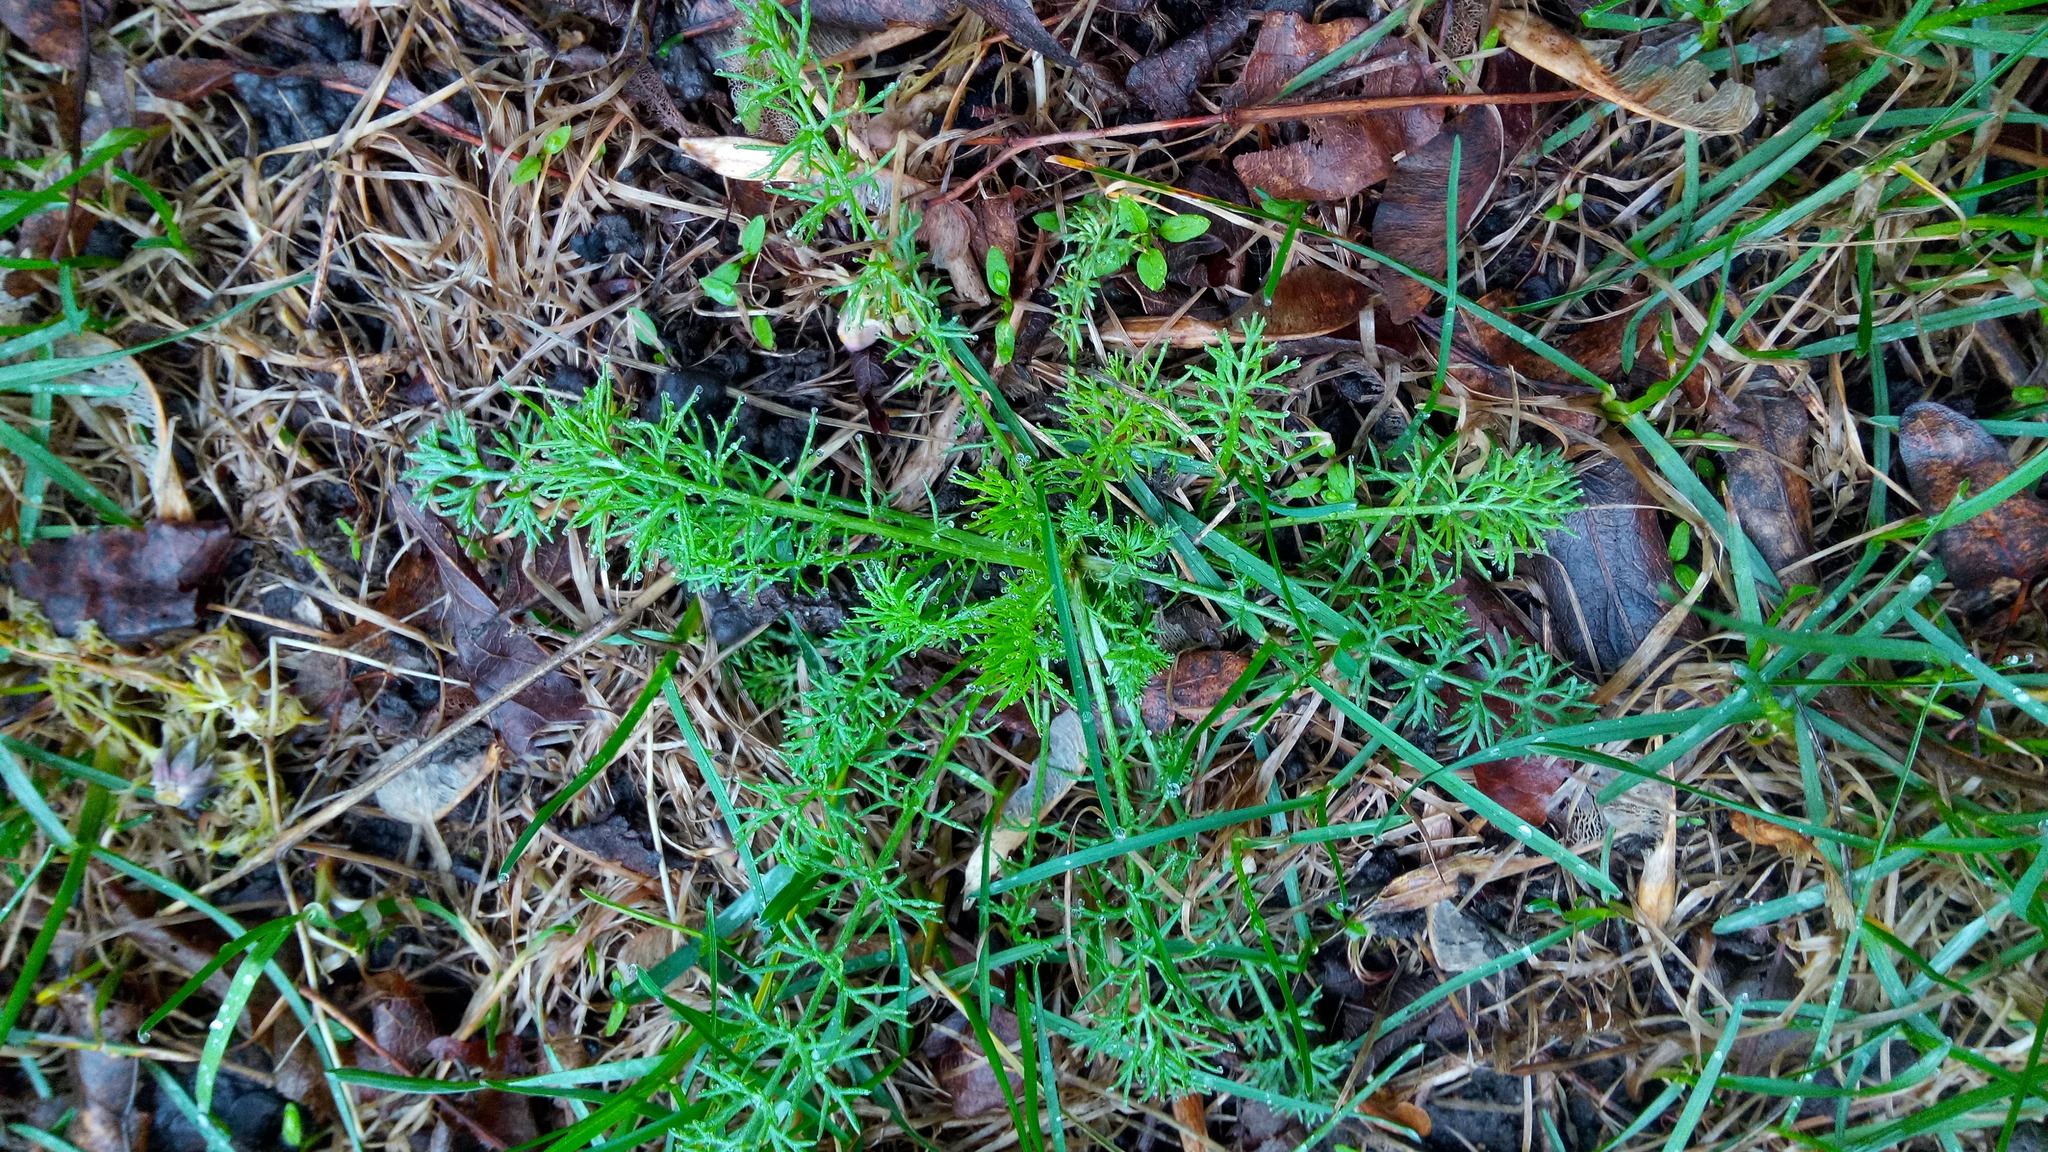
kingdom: Plantae
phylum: Tracheophyta
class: Magnoliopsida
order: Asterales
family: Asteraceae
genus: Tripleurospermum
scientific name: Tripleurospermum inodorum
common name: Scentless mayweed
